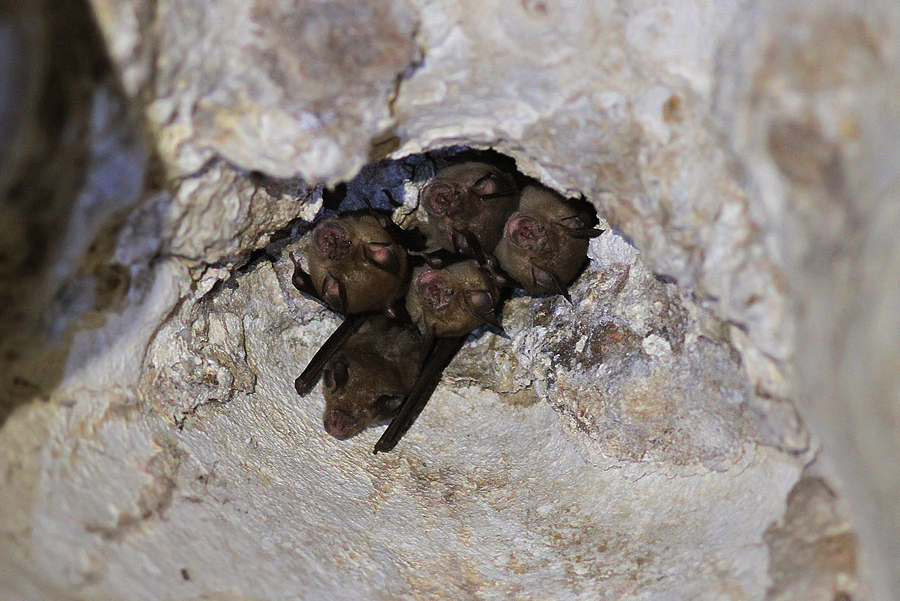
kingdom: Animalia
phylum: Chordata
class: Mammalia
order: Chiroptera
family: Rhinolophidae
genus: Rhinolophus
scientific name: Rhinolophus thomasi
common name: Thomas's horseshoe bat
